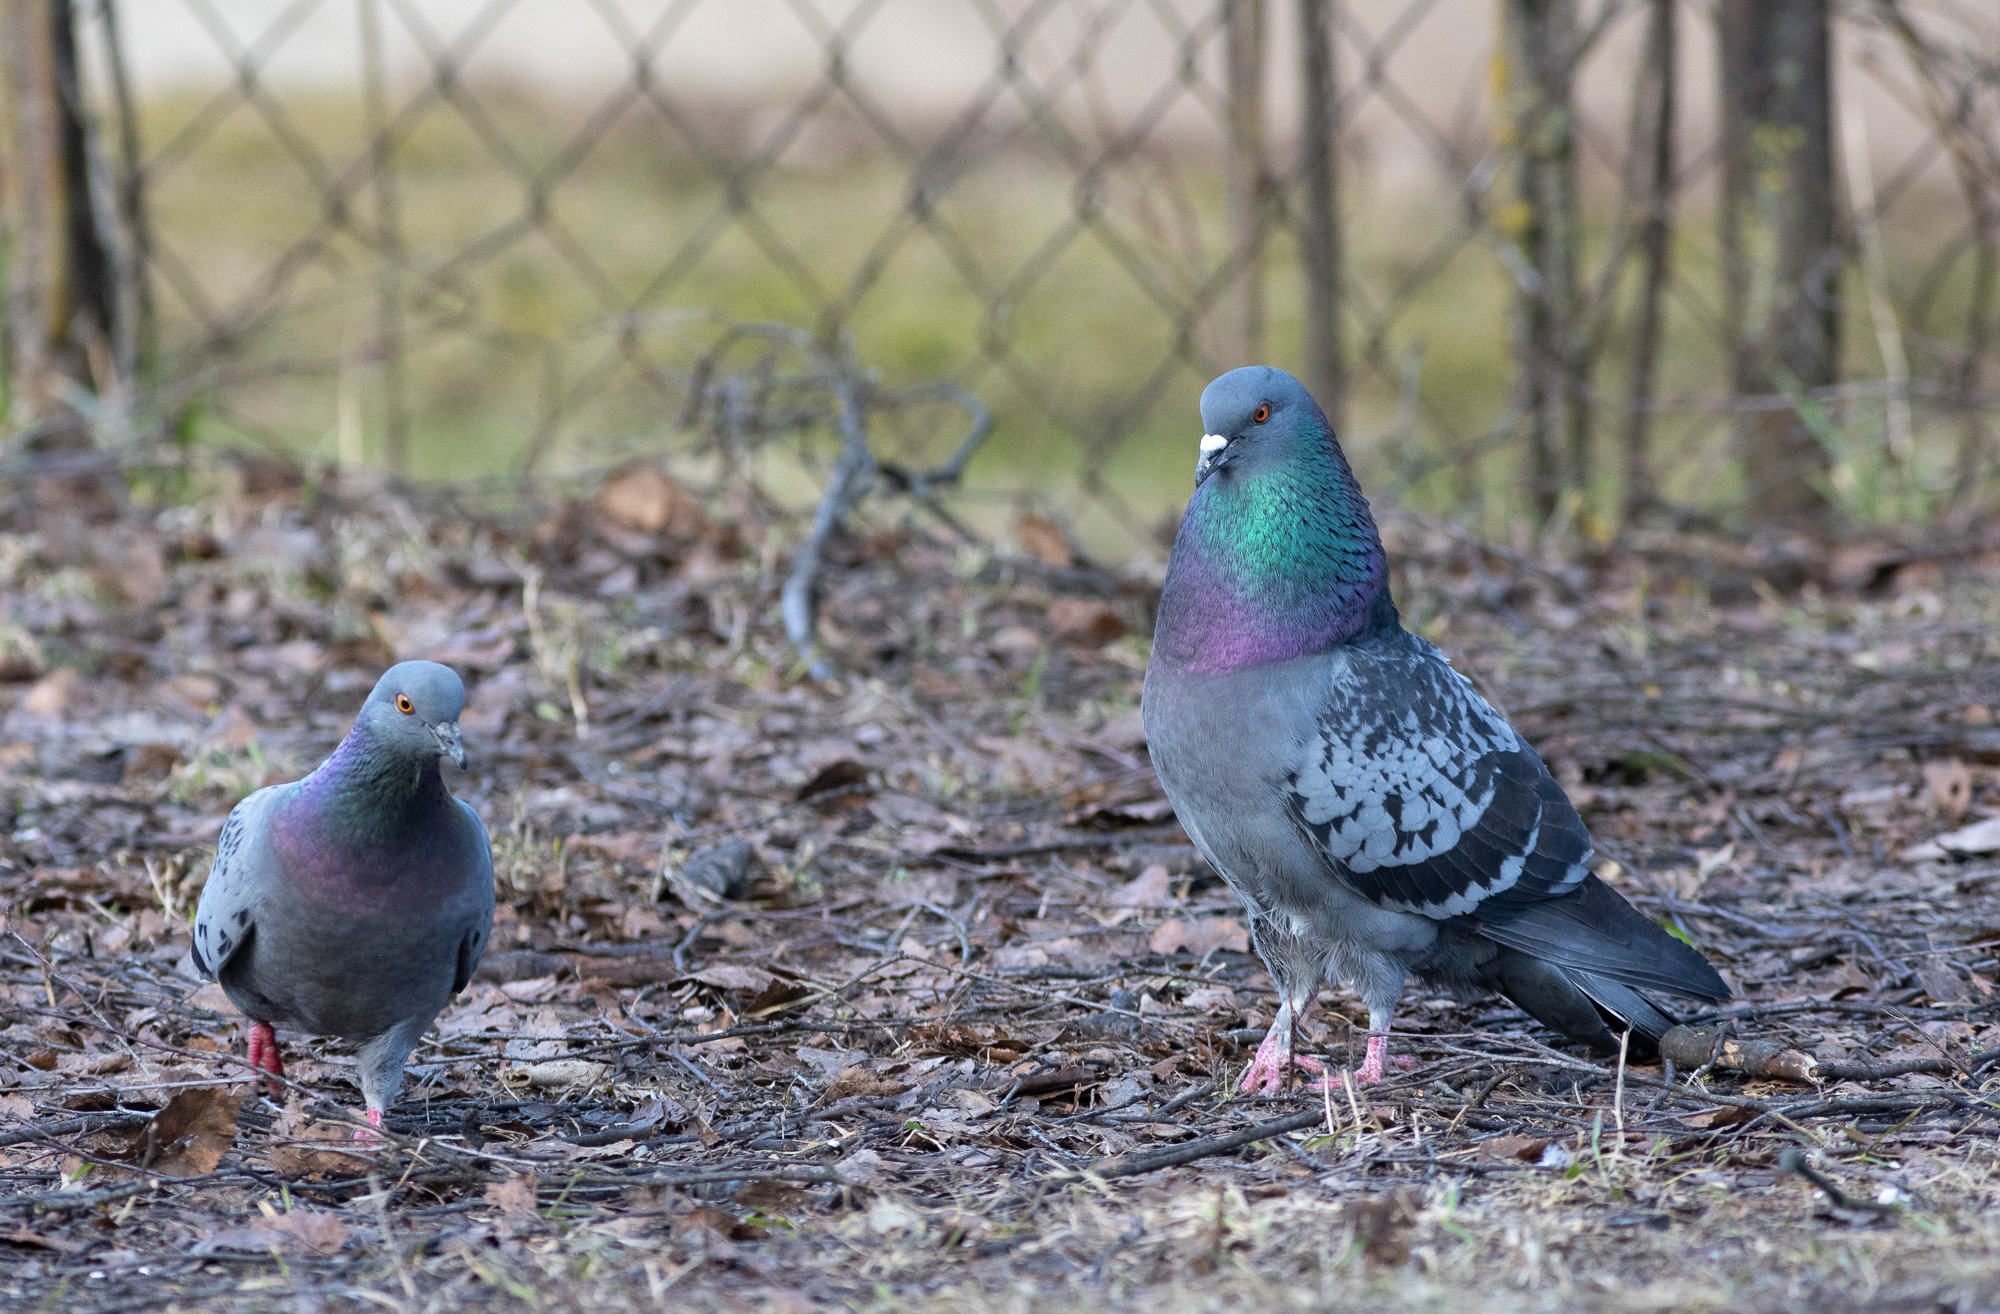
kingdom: Animalia
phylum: Chordata
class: Aves
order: Columbiformes
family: Columbidae
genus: Columba
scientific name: Columba livia
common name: Rock pigeon
